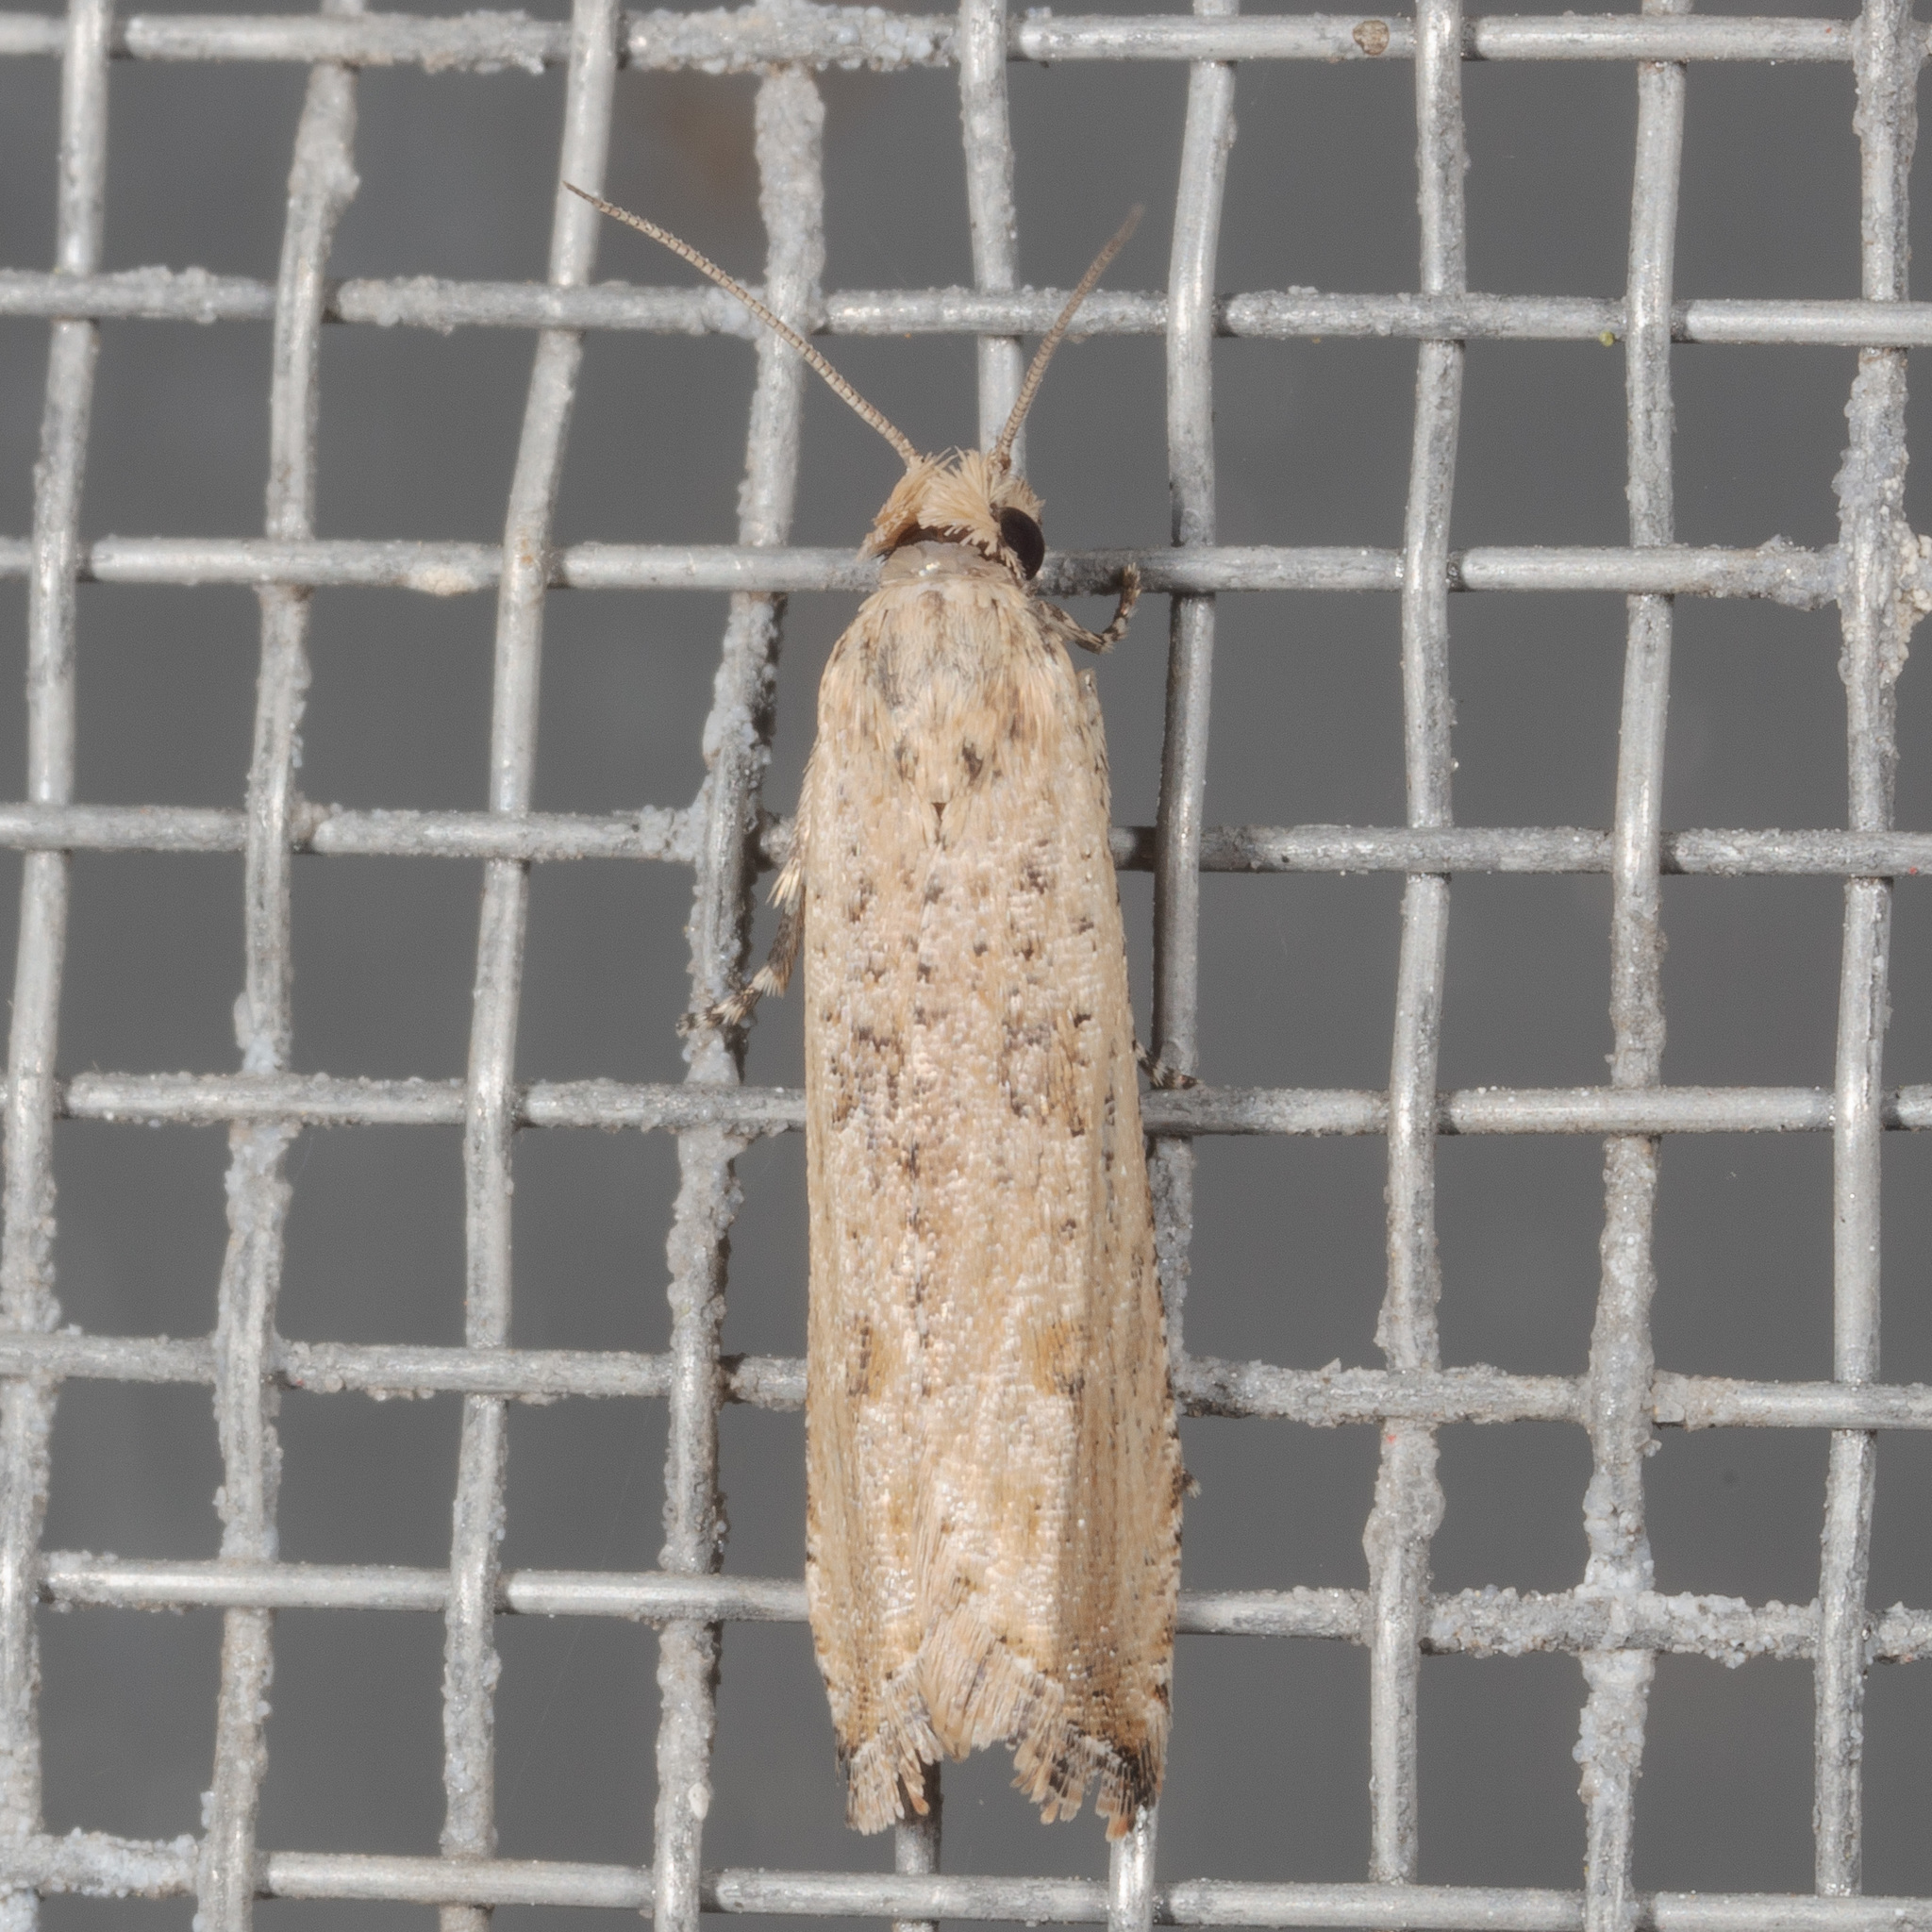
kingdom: Animalia
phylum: Arthropoda
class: Insecta
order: Lepidoptera
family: Tortricidae
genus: Bactra
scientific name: Bactra verutana
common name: Javelin moth
